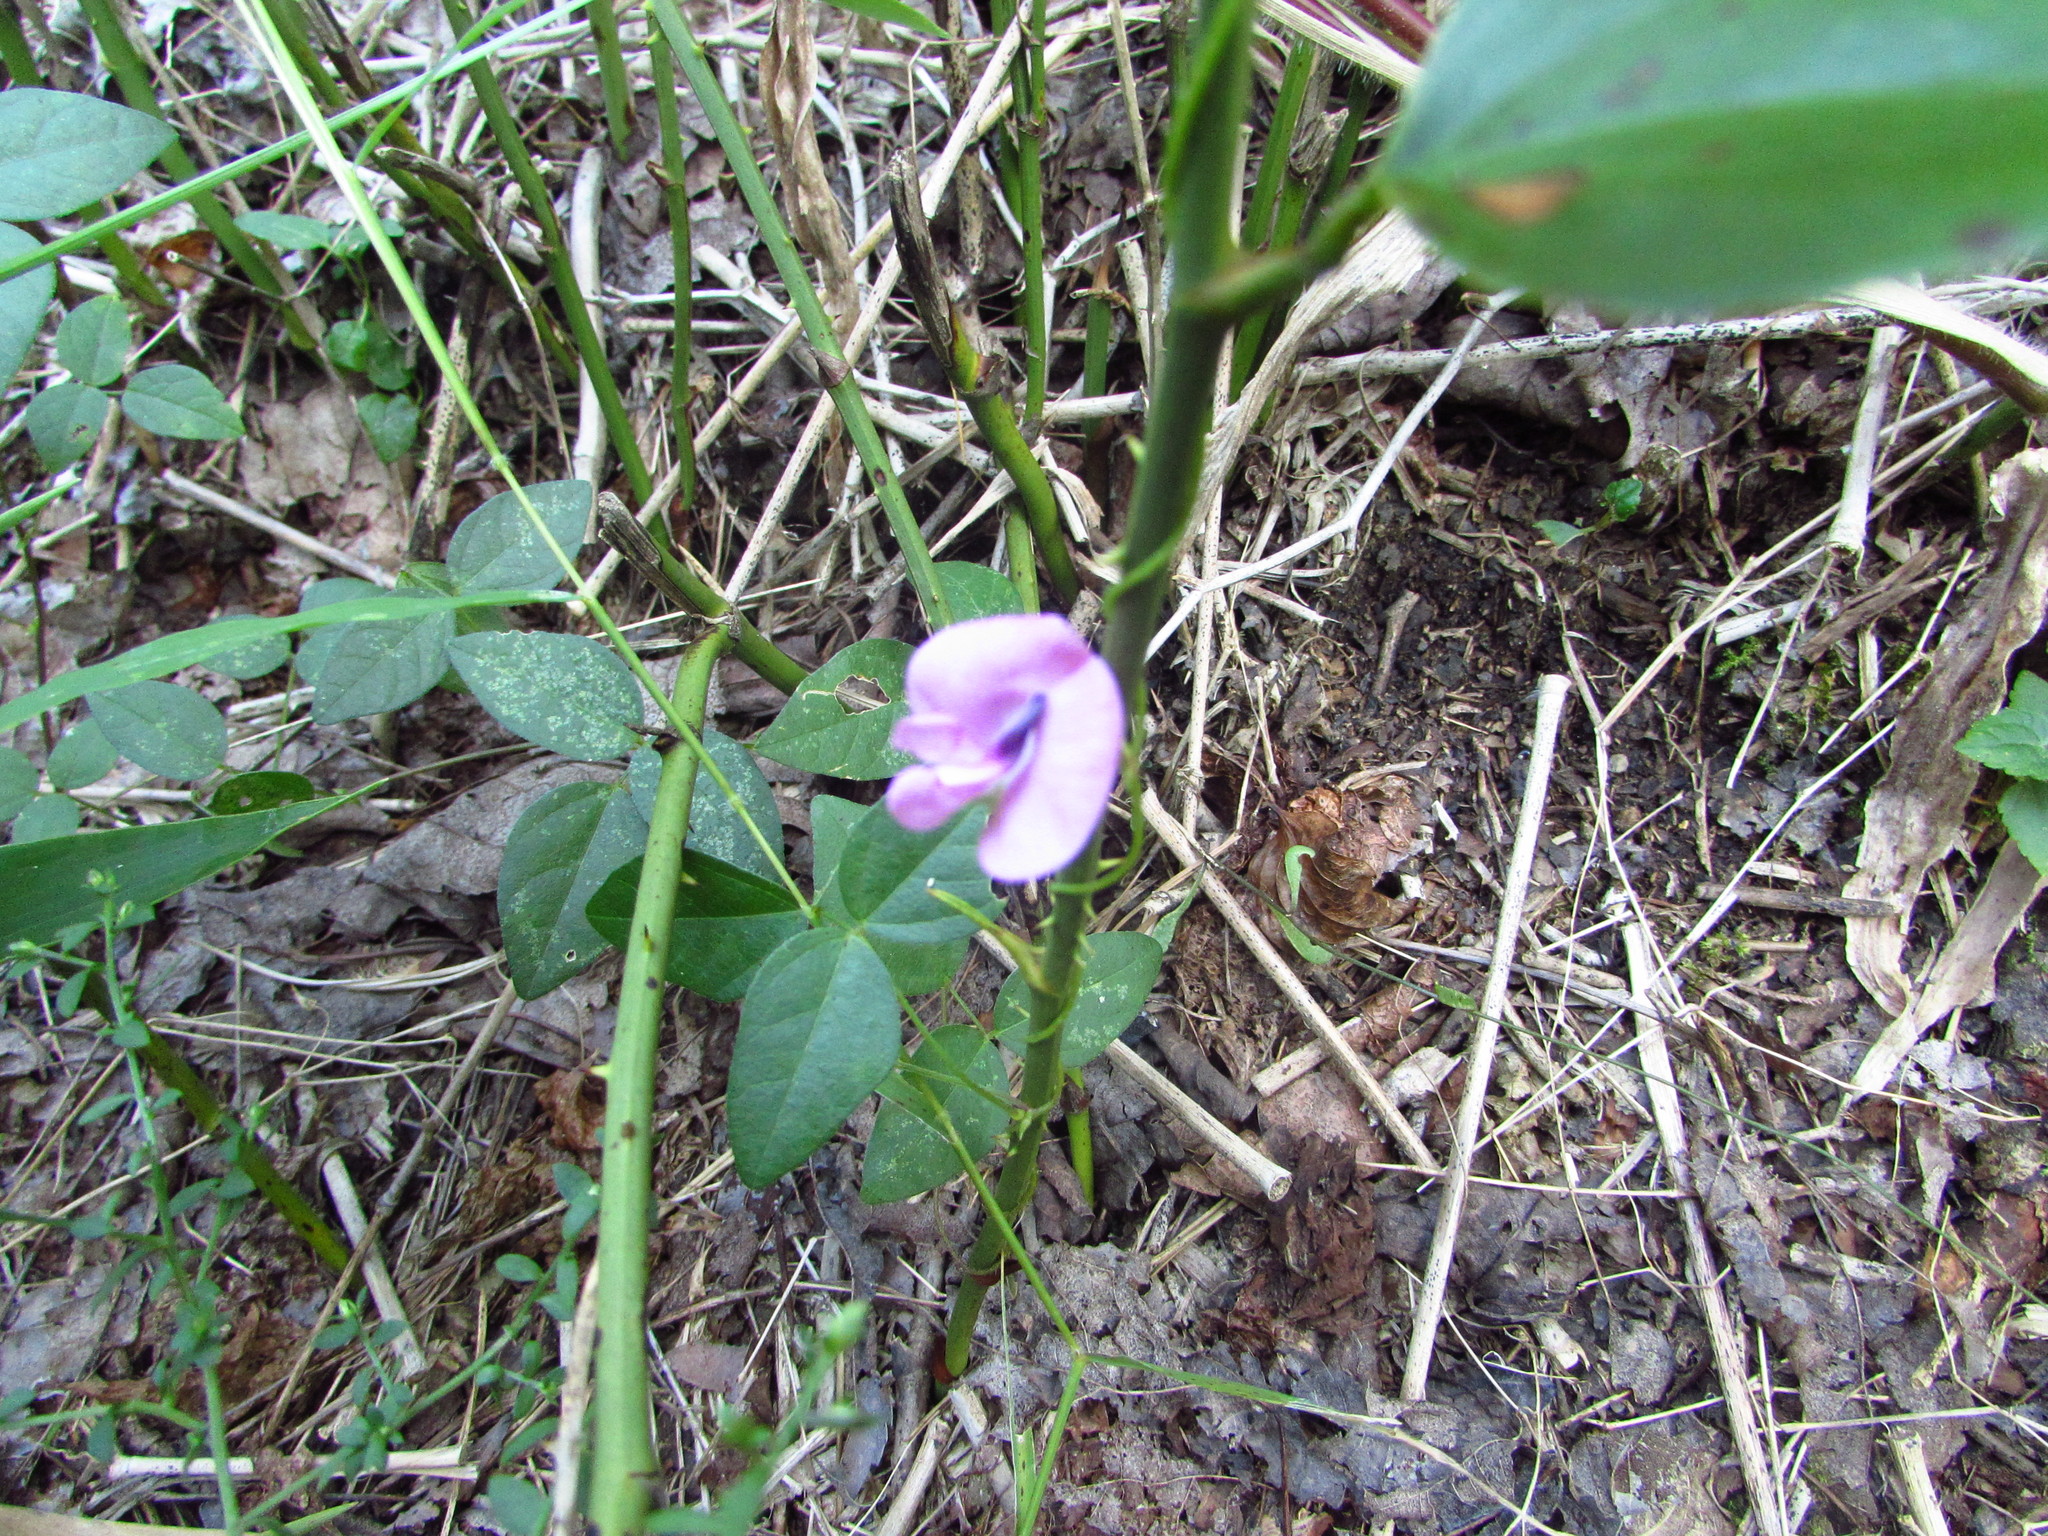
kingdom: Plantae
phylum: Tracheophyta
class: Magnoliopsida
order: Fabales
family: Fabaceae
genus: Strophostyles
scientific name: Strophostyles umbellata
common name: Perennial wild bean
